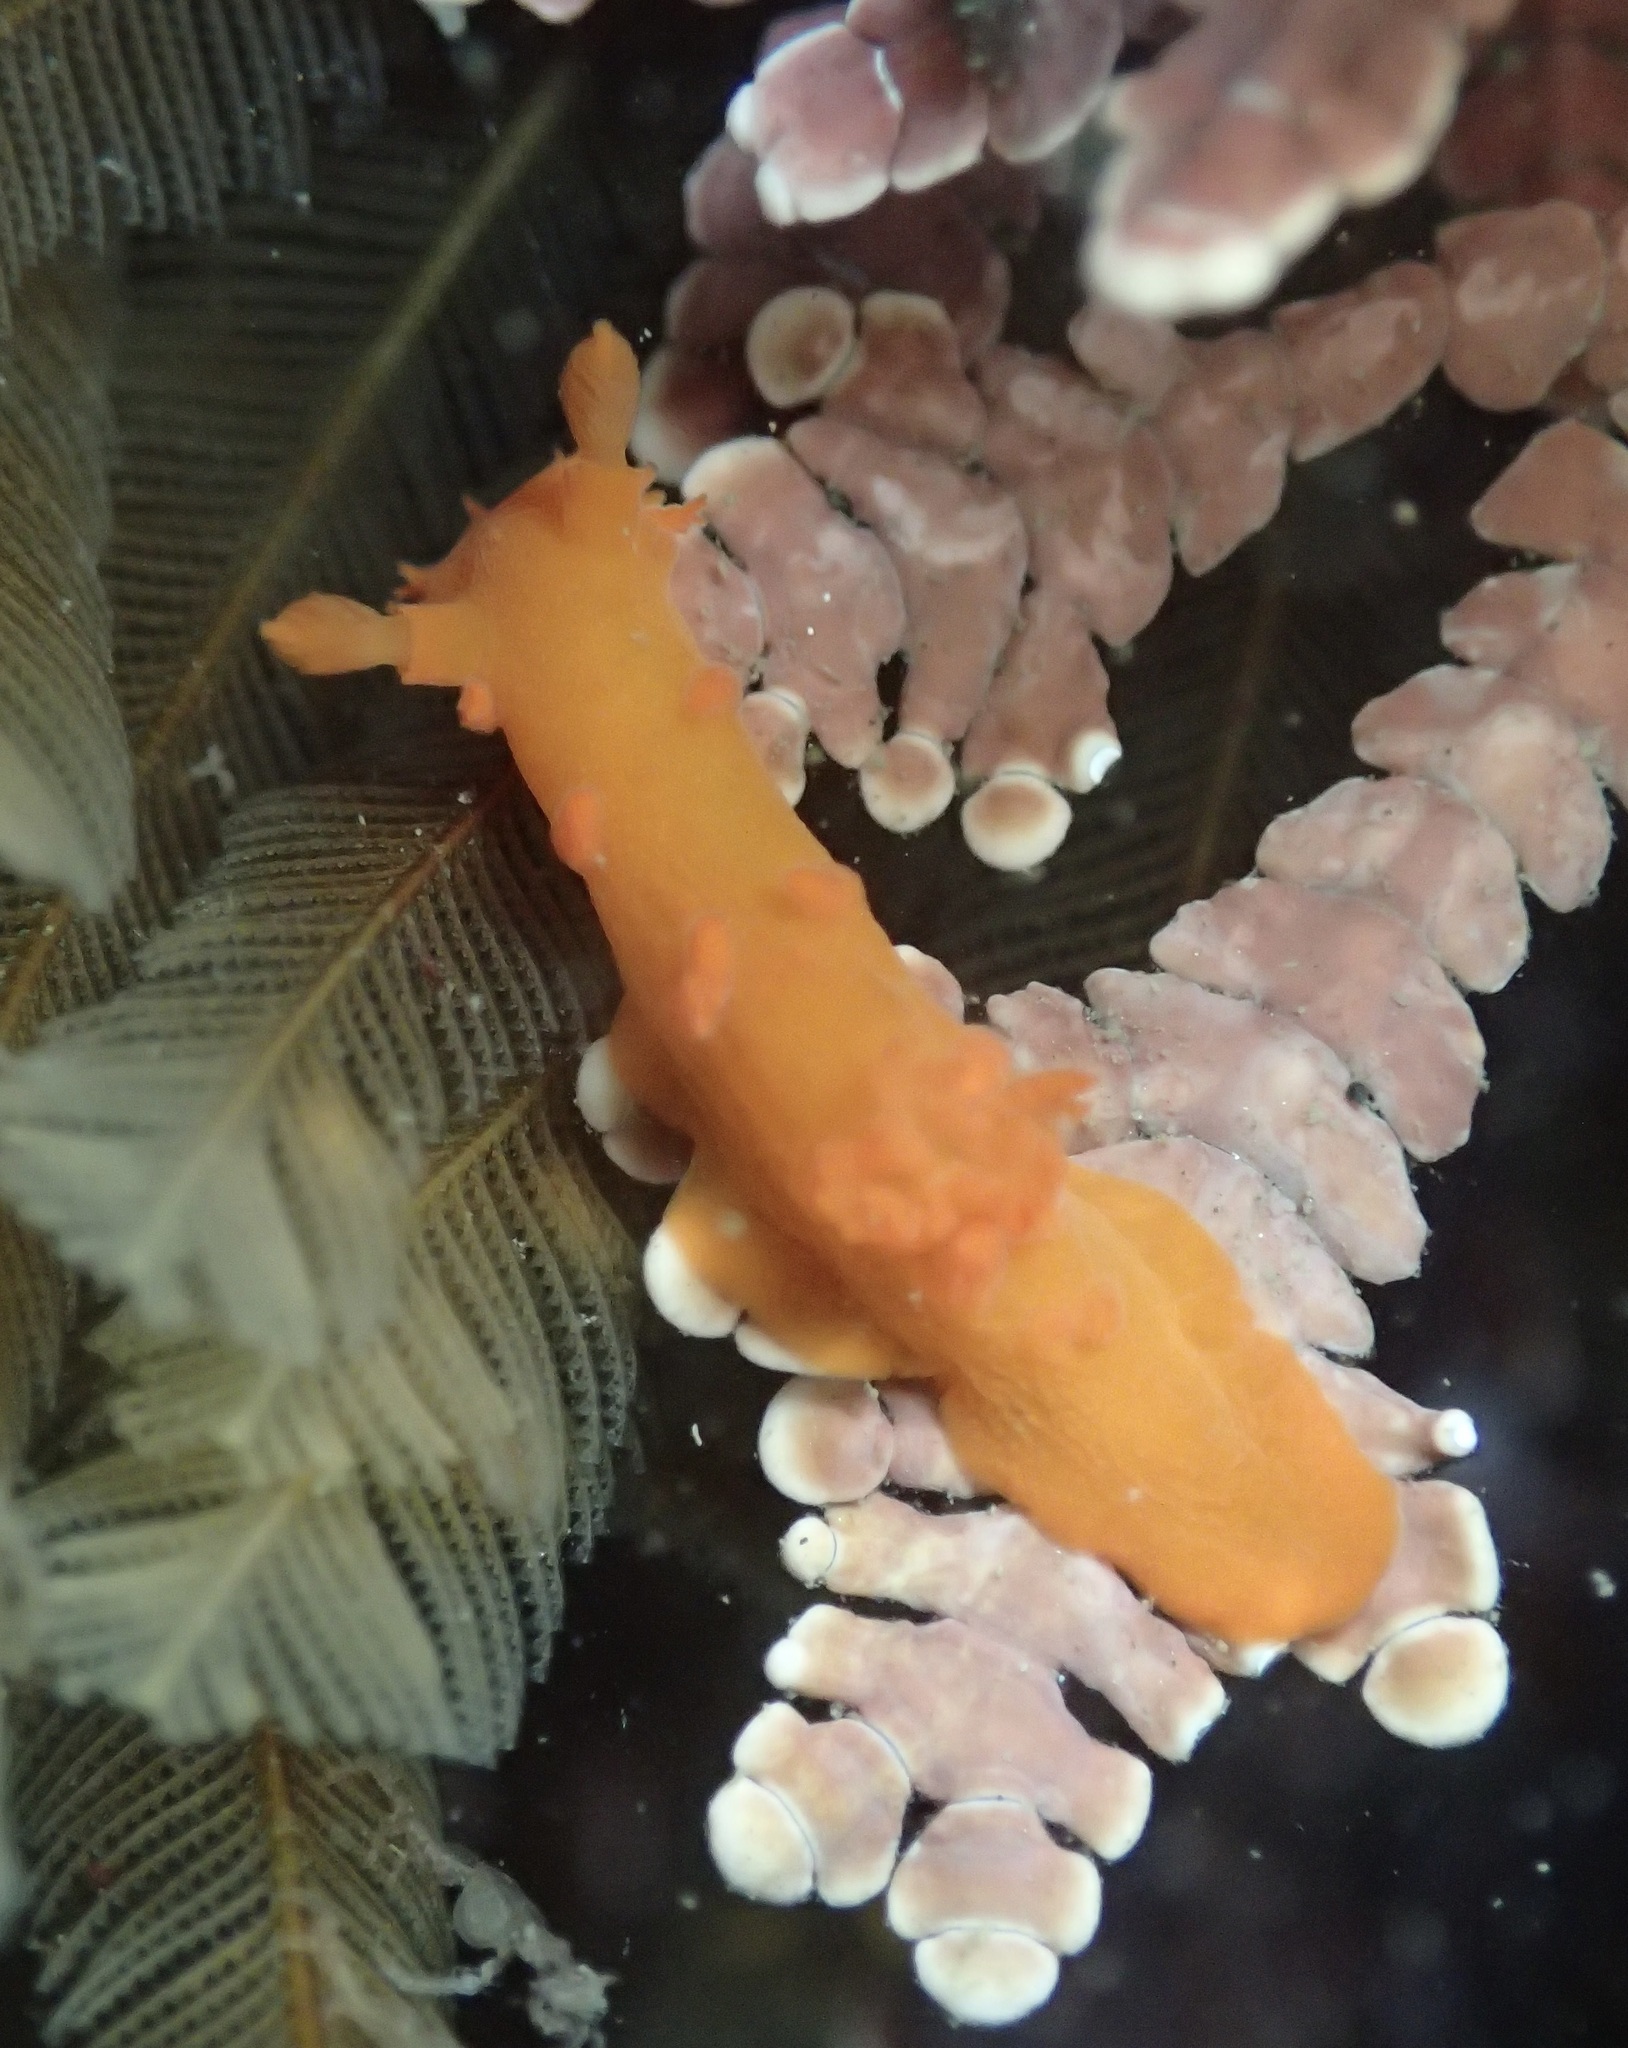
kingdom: Animalia
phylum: Mollusca
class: Gastropoda
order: Nudibranchia
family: Polyceridae
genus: Triopha
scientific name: Triopha maculata
